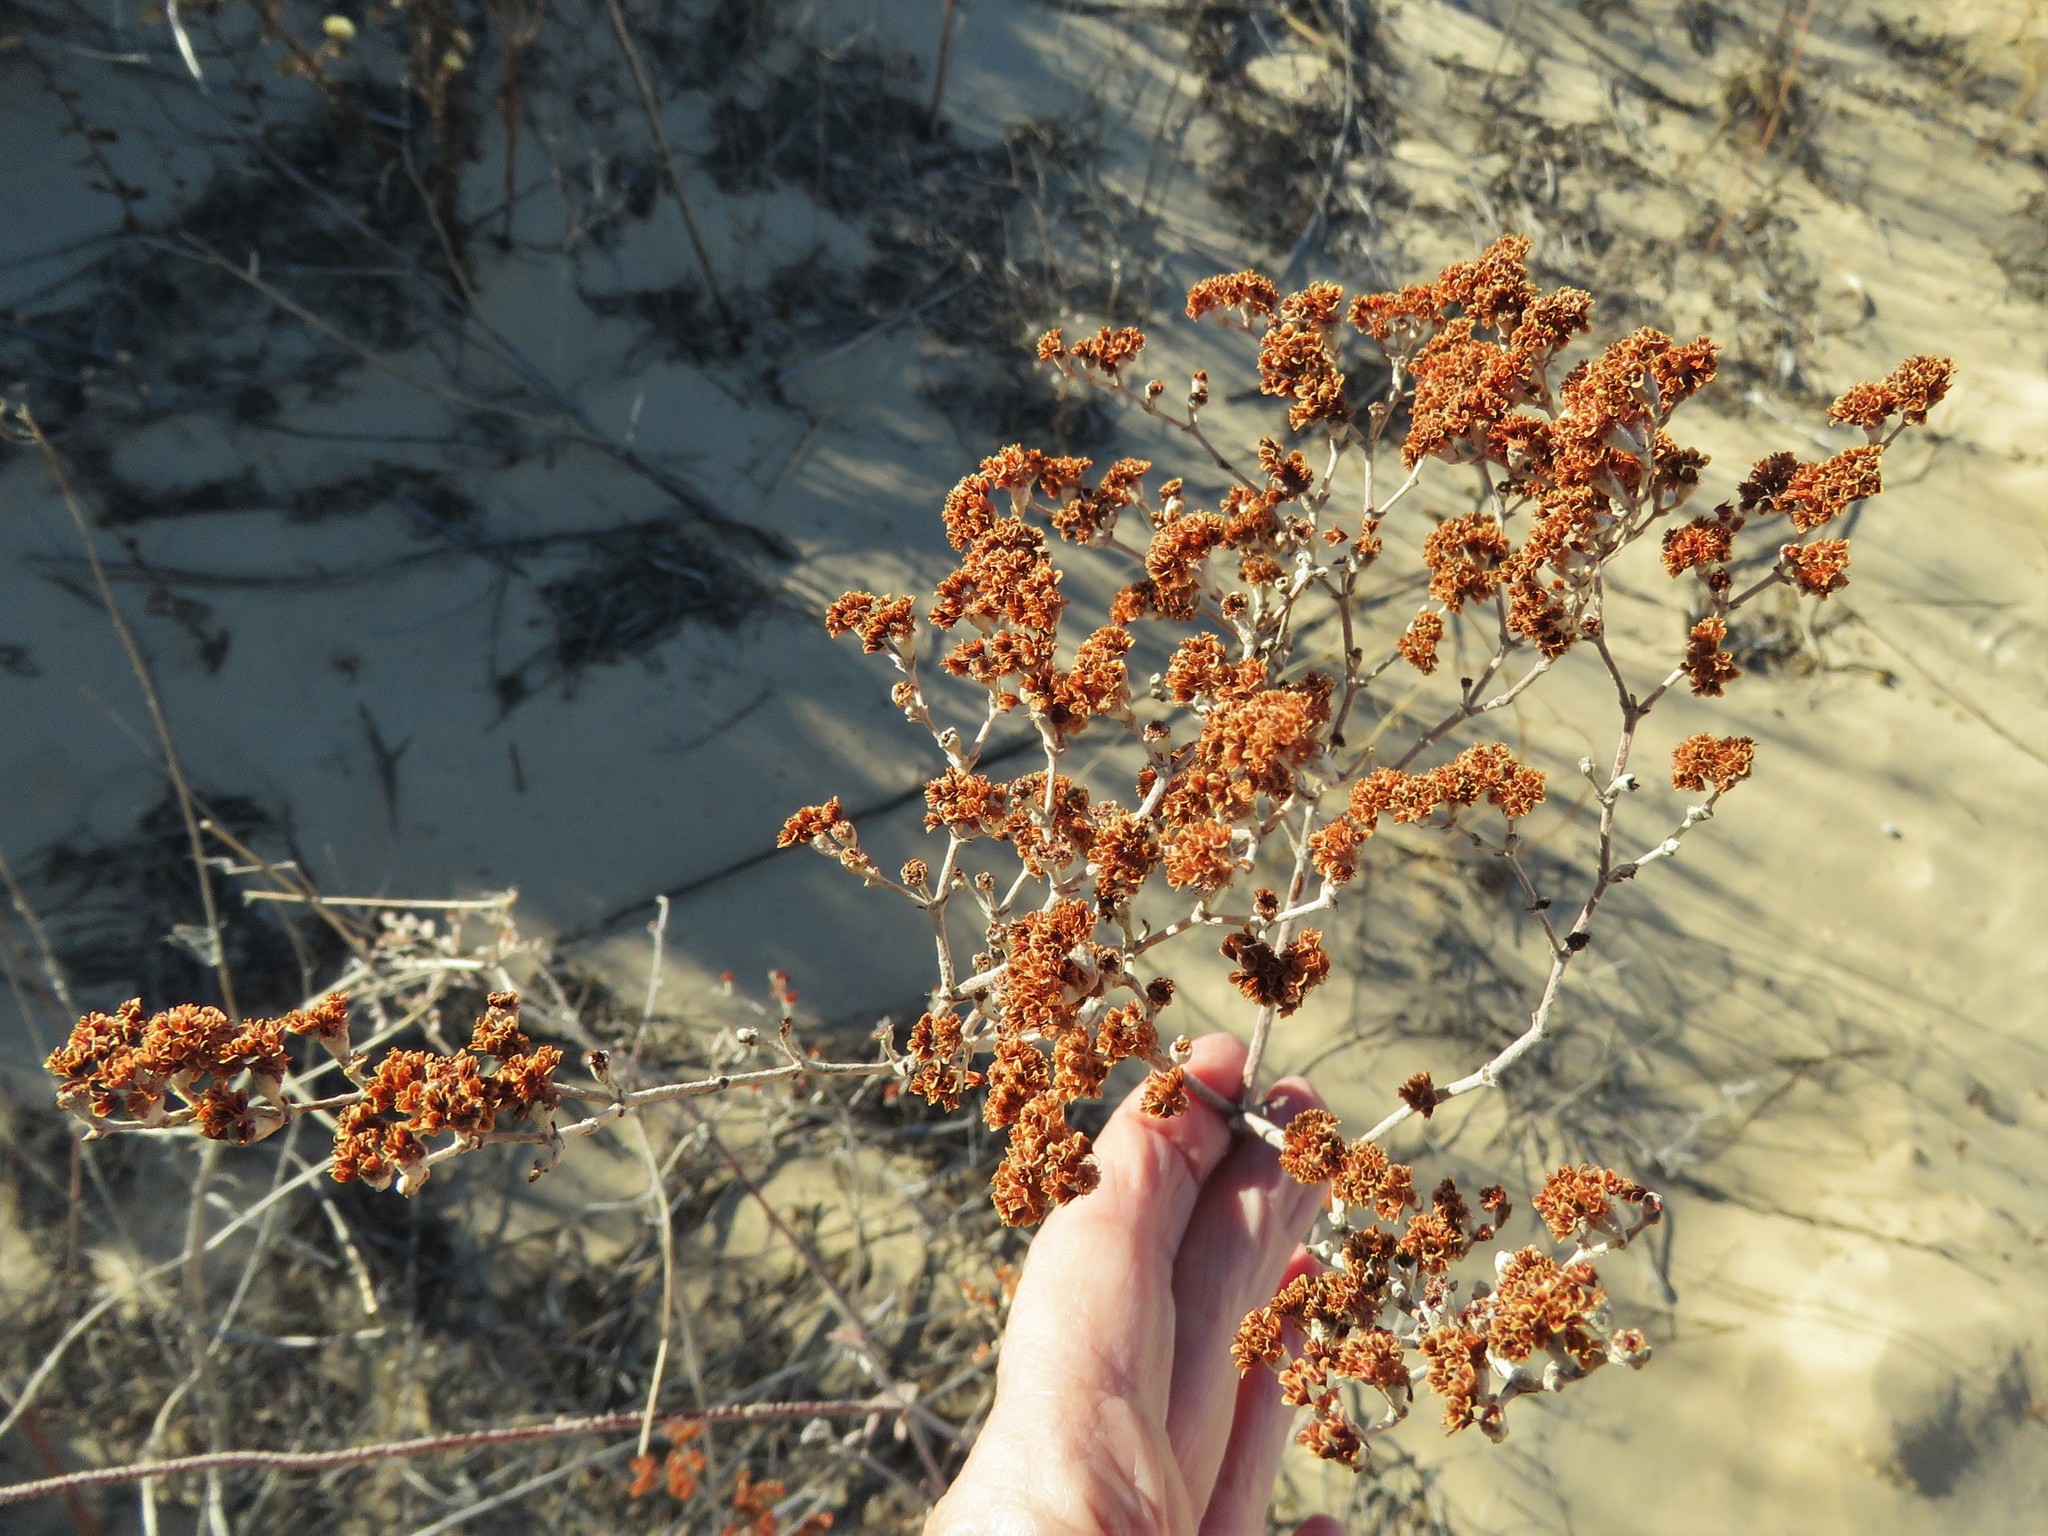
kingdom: Plantae
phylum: Tracheophyta
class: Magnoliopsida
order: Caryophyllales
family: Polygonaceae
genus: Eriogonum
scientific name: Eriogonum annuum
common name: Annual wild buckwheat
